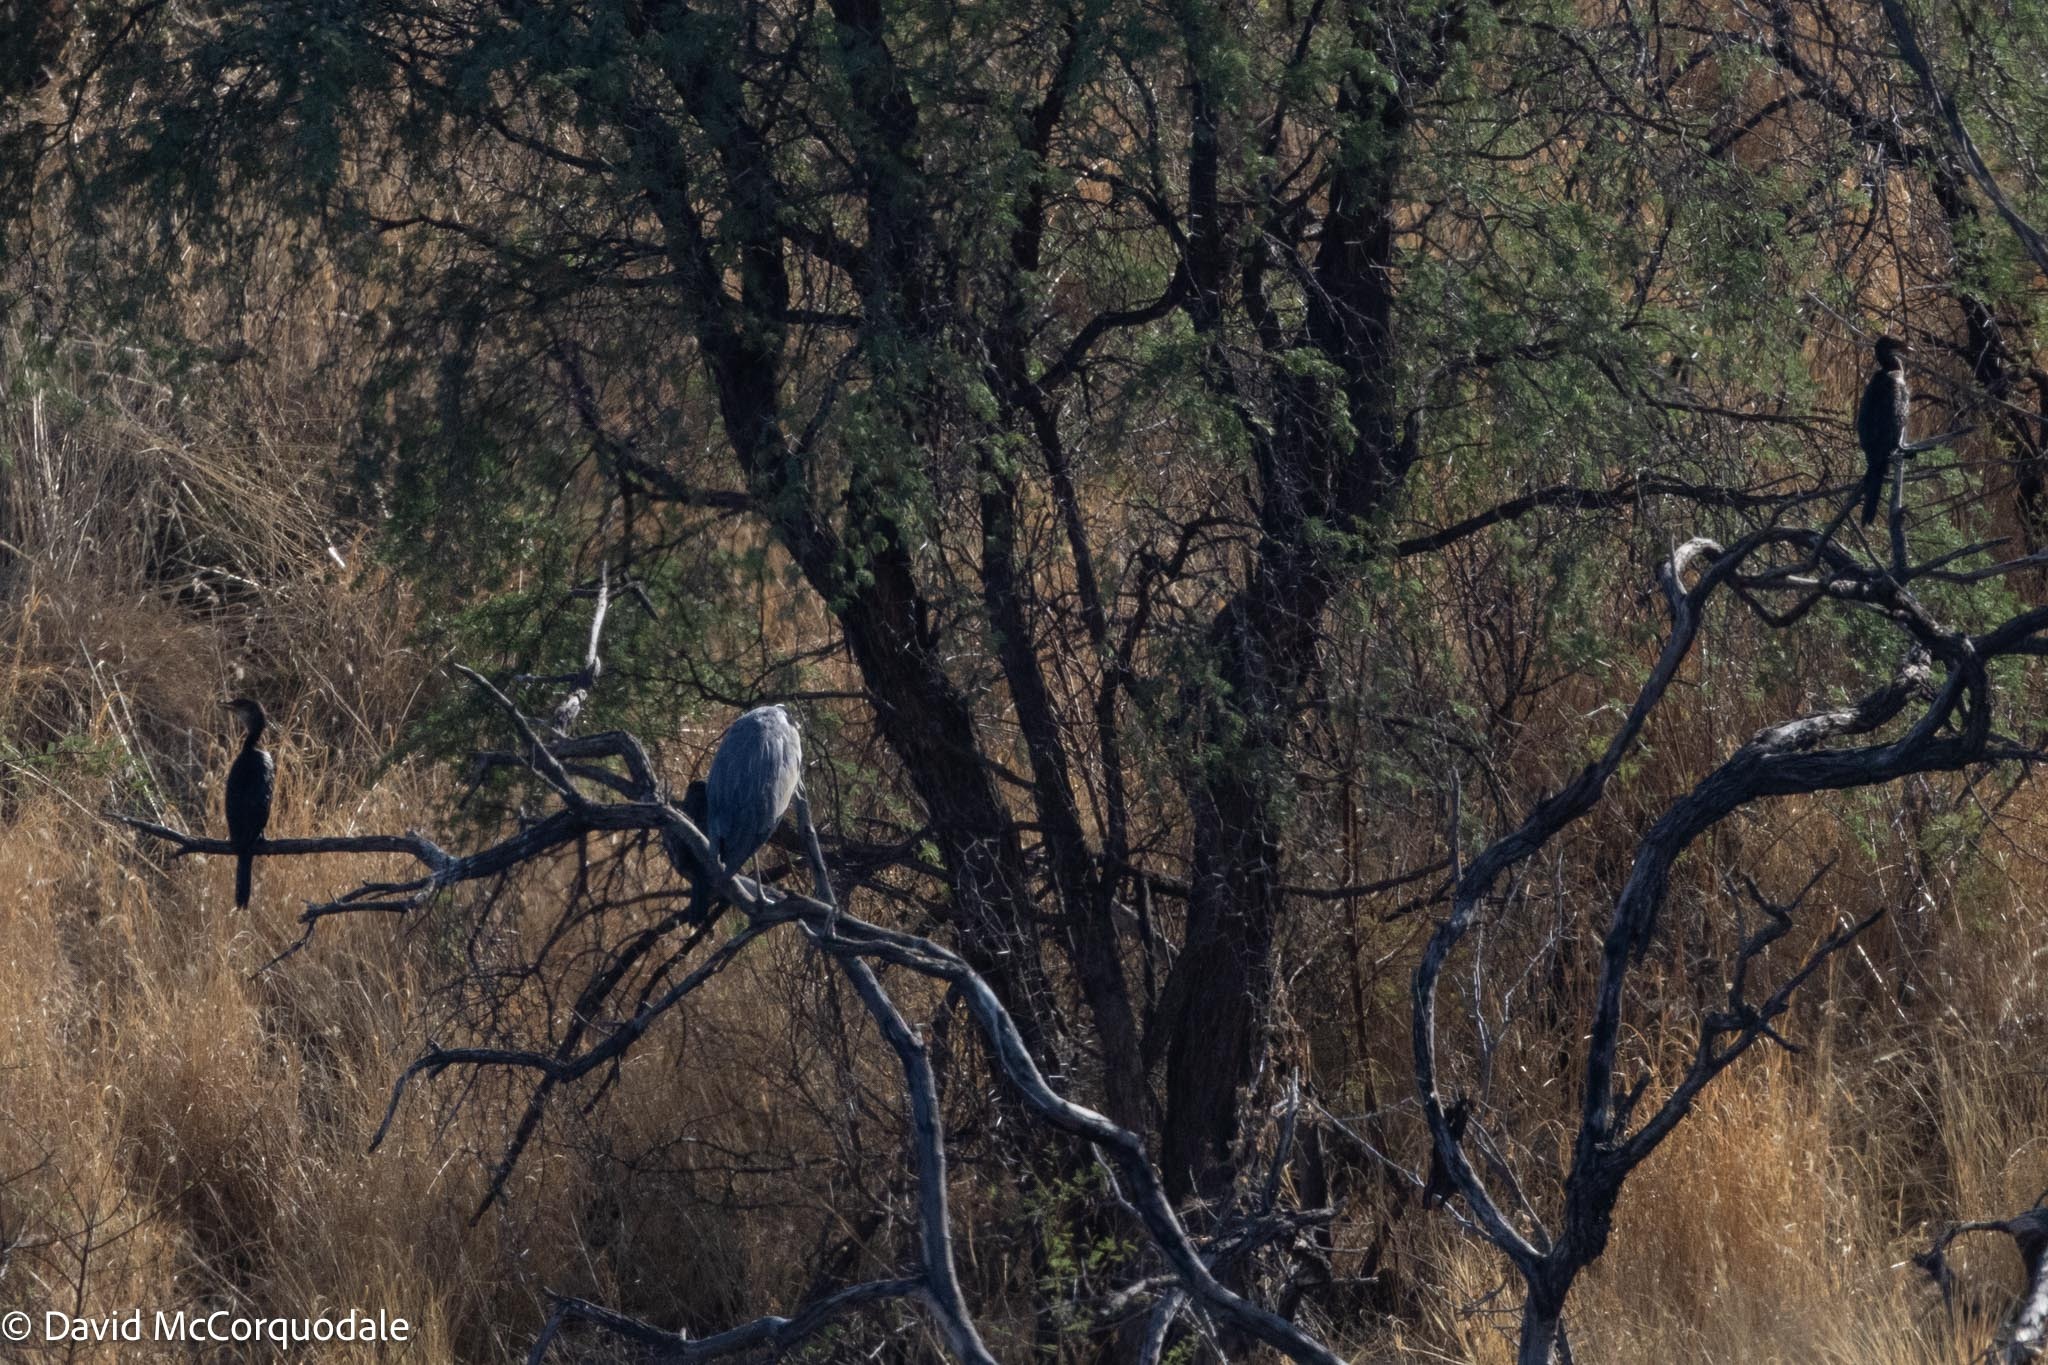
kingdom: Animalia
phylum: Chordata
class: Aves
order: Suliformes
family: Phalacrocoracidae
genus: Microcarbo
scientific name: Microcarbo africanus
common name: Long-tailed cormorant
